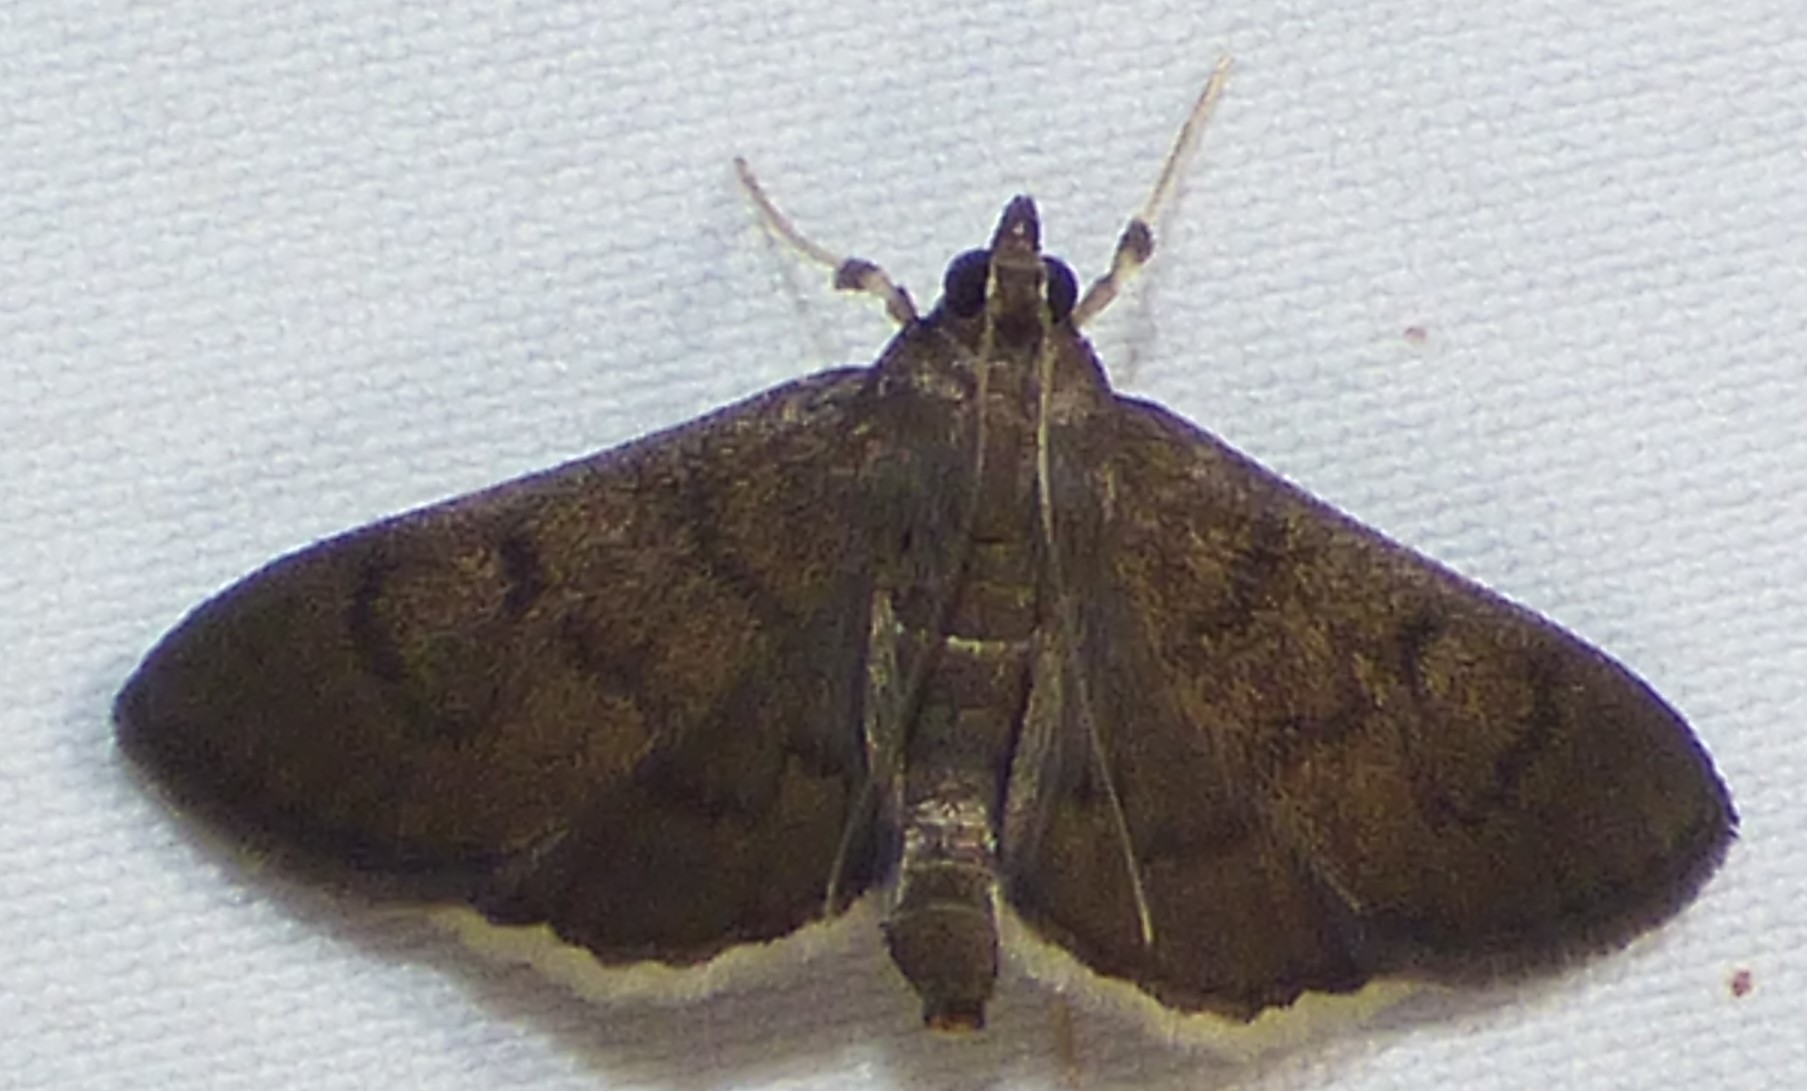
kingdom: Animalia
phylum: Arthropoda
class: Insecta
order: Lepidoptera
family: Crambidae
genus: Herpetogramma
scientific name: Herpetogramma phaeopteralis
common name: Dusky herpetogramma moth
